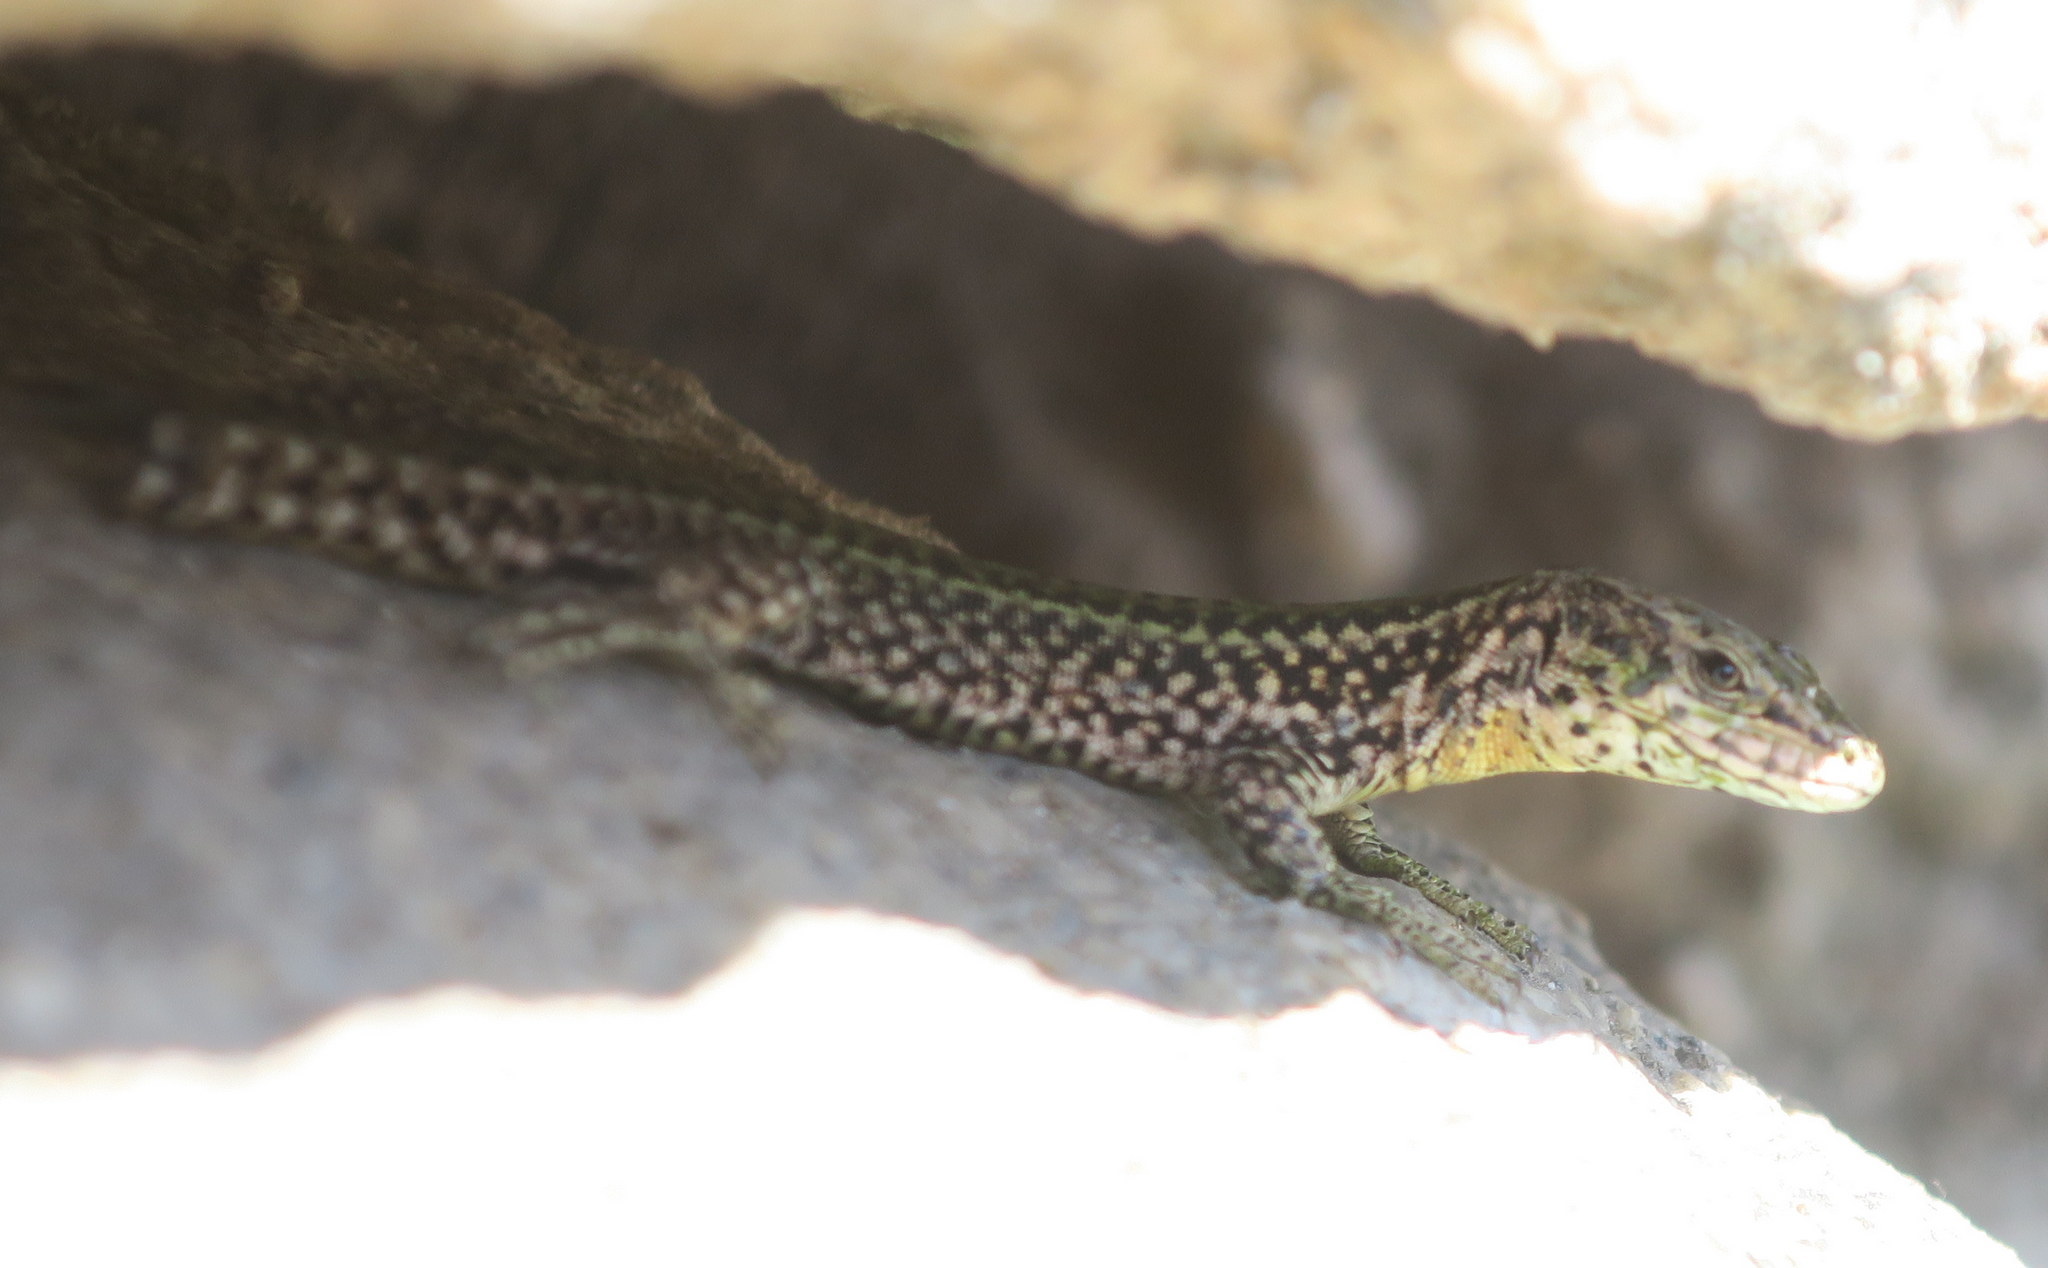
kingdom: Animalia
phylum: Chordata
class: Squamata
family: Lacertidae
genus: Podarcis
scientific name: Podarcis bocagei
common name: Bocage's wall lizard
